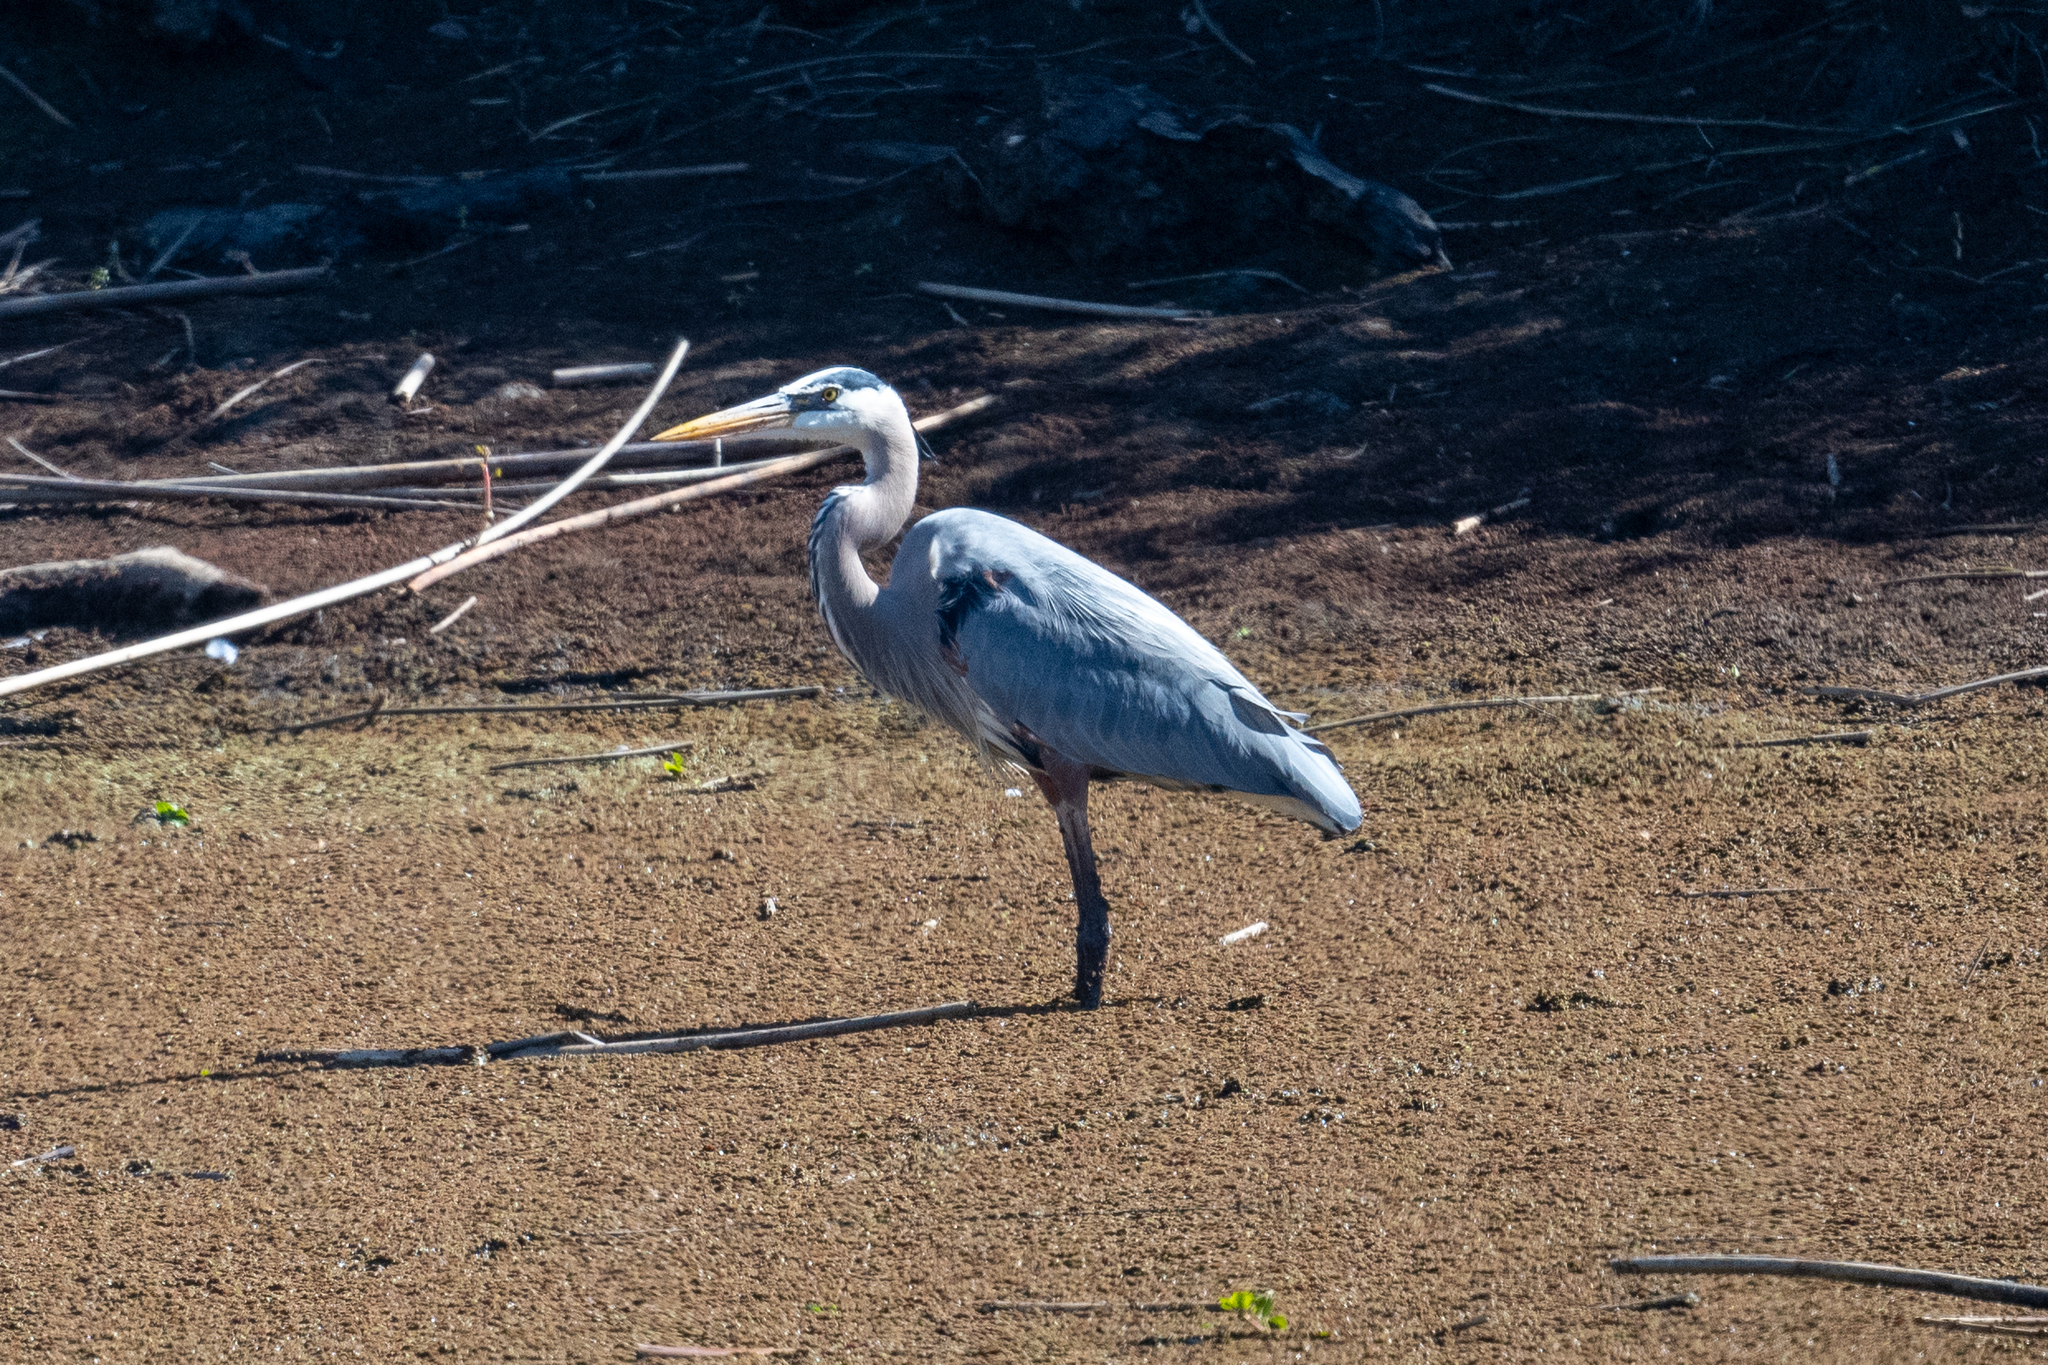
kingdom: Animalia
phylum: Chordata
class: Aves
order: Pelecaniformes
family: Ardeidae
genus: Ardea
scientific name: Ardea herodias
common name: Great blue heron
